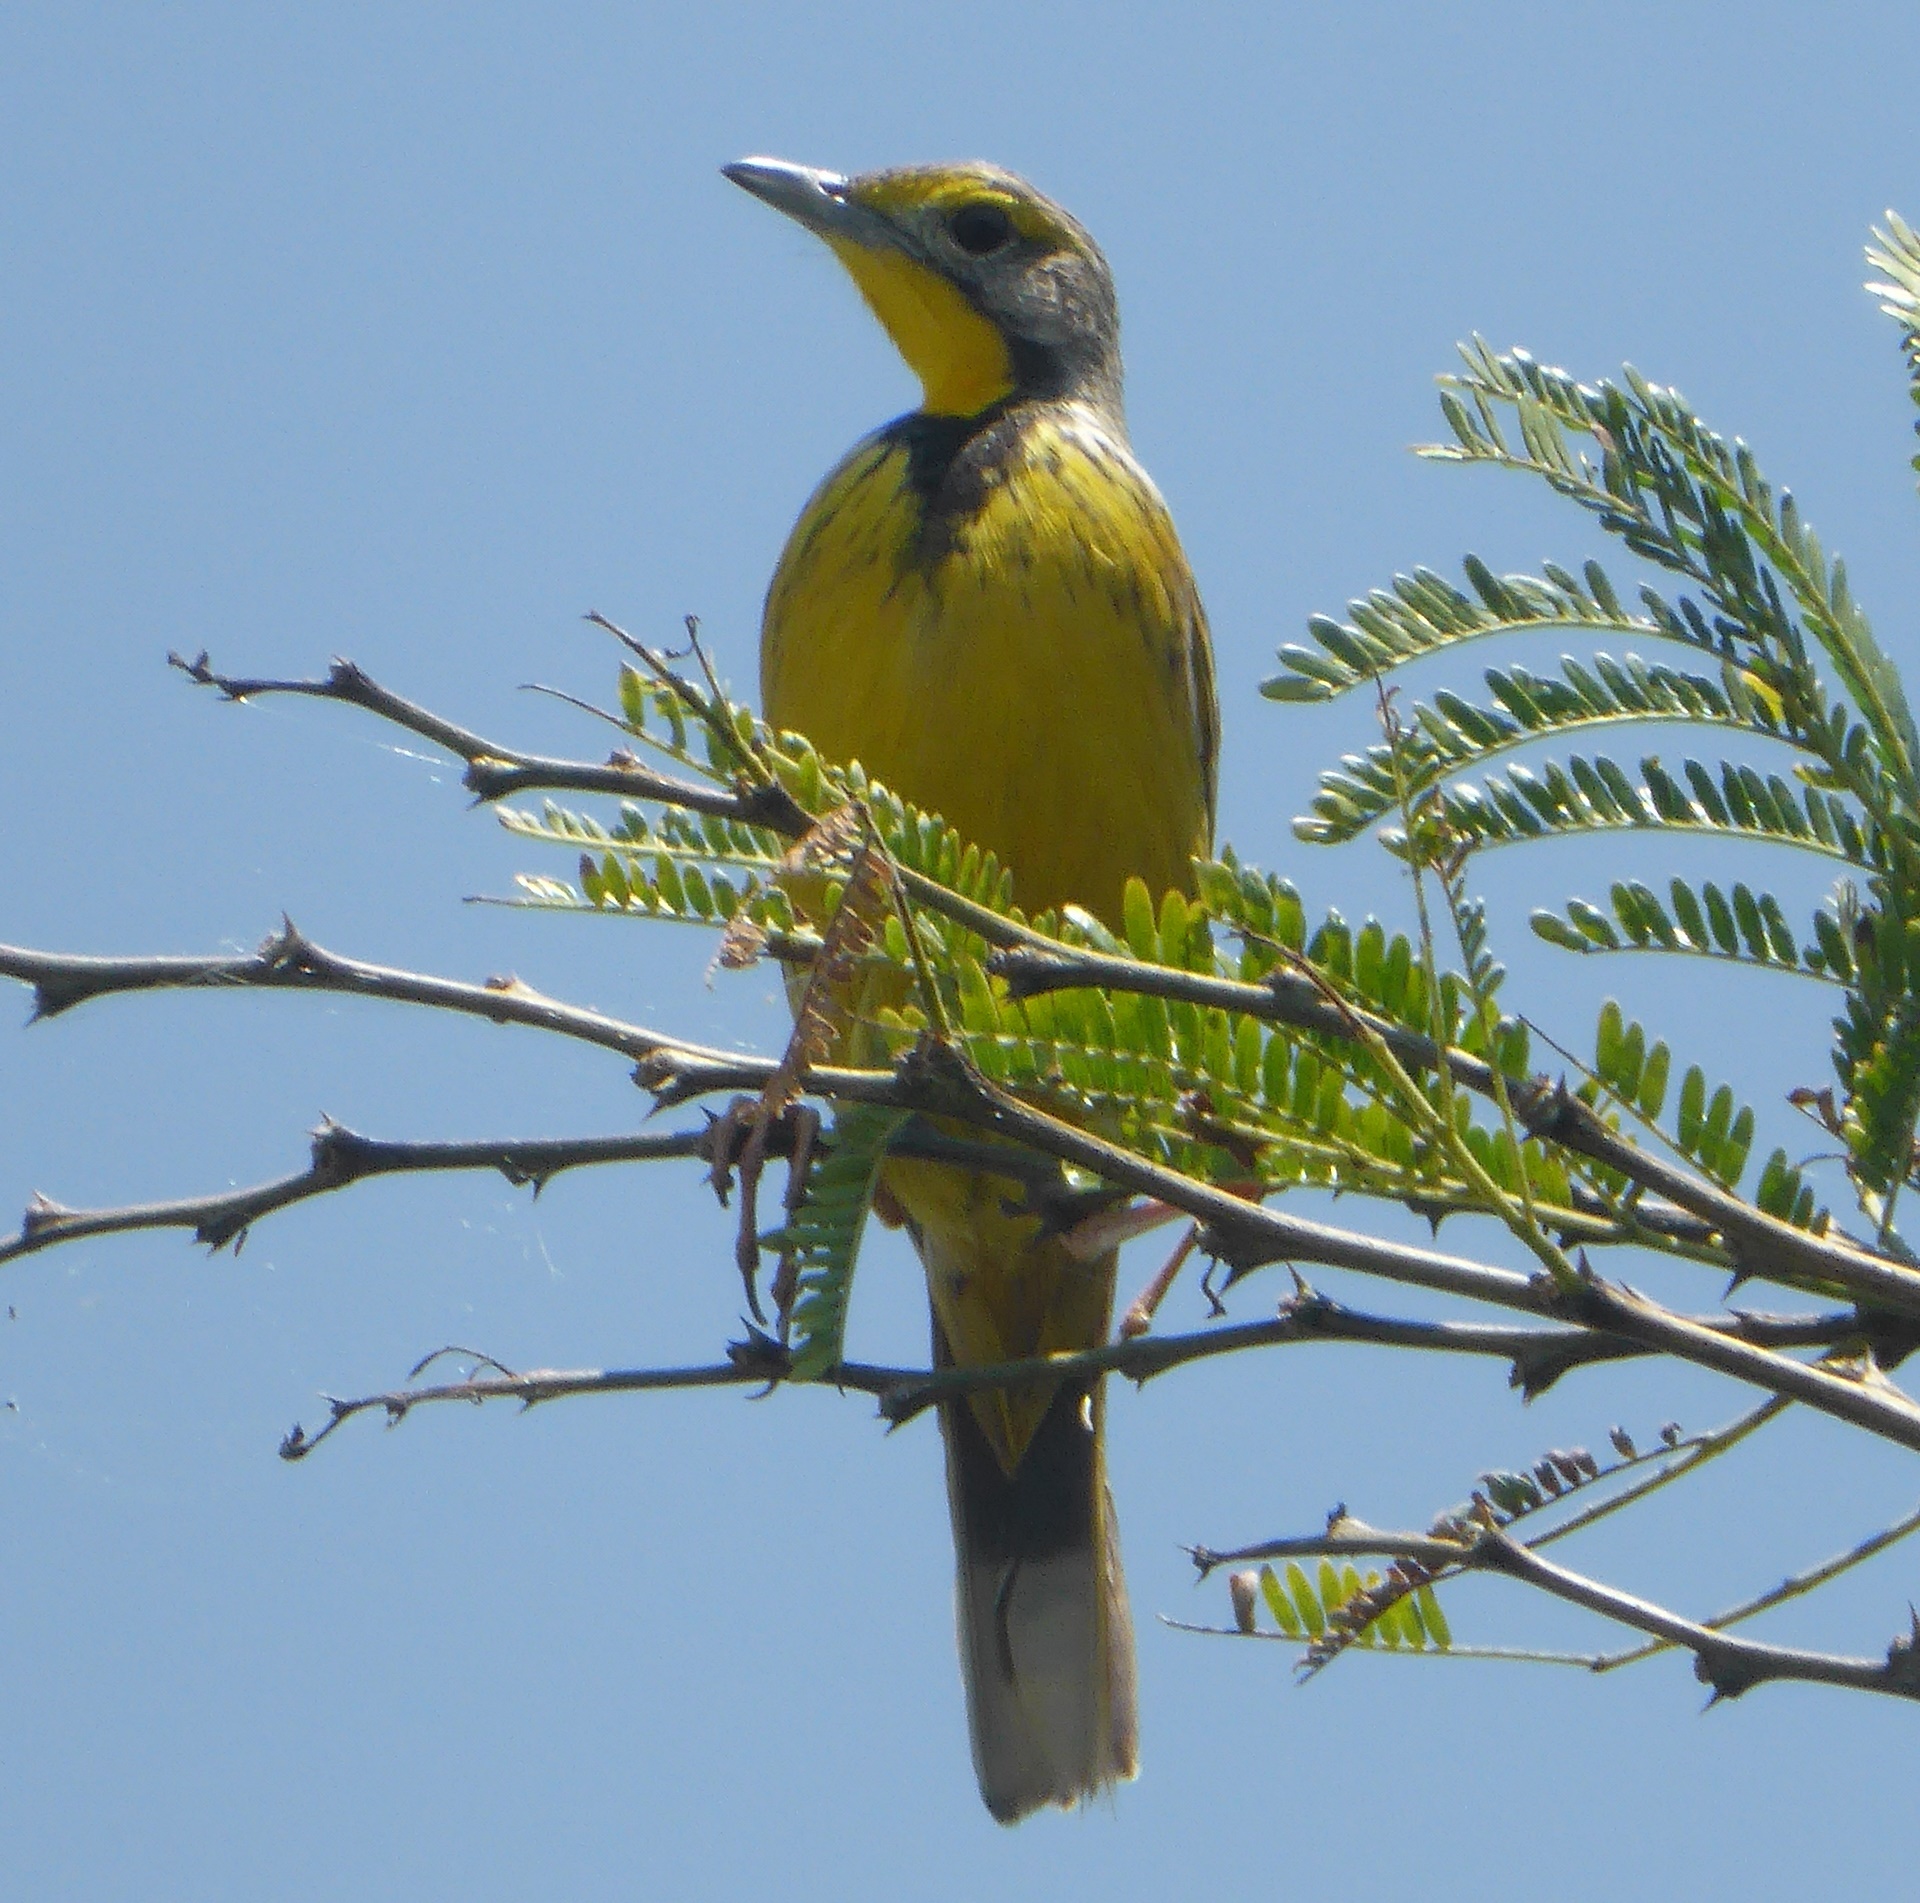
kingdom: Animalia
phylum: Chordata
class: Aves
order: Passeriformes
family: Motacillidae
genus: Macronyx
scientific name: Macronyx croceus
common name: Yellow-throated longclaw
